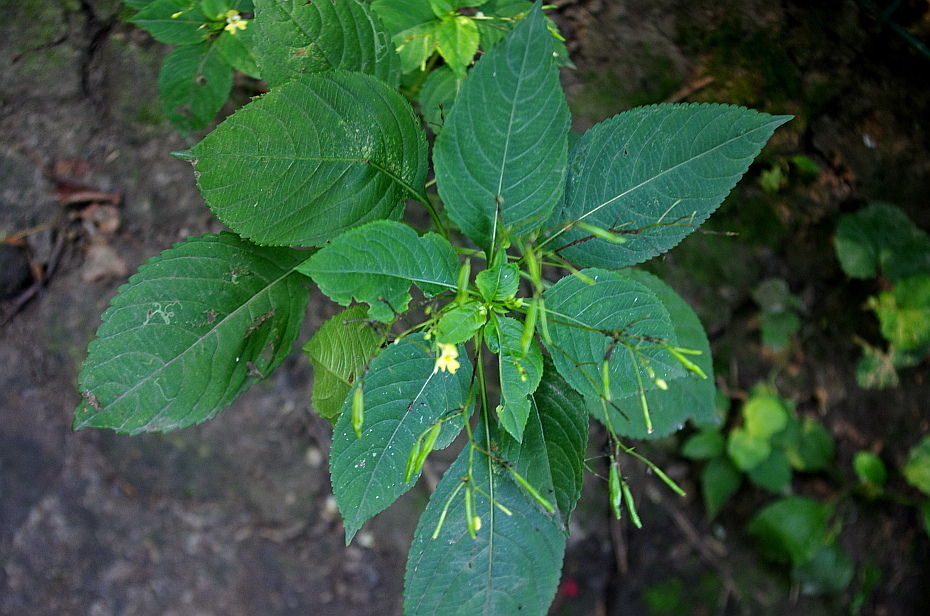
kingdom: Plantae
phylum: Tracheophyta
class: Magnoliopsida
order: Ericales
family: Balsaminaceae
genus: Impatiens
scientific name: Impatiens parviflora
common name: Small balsam
